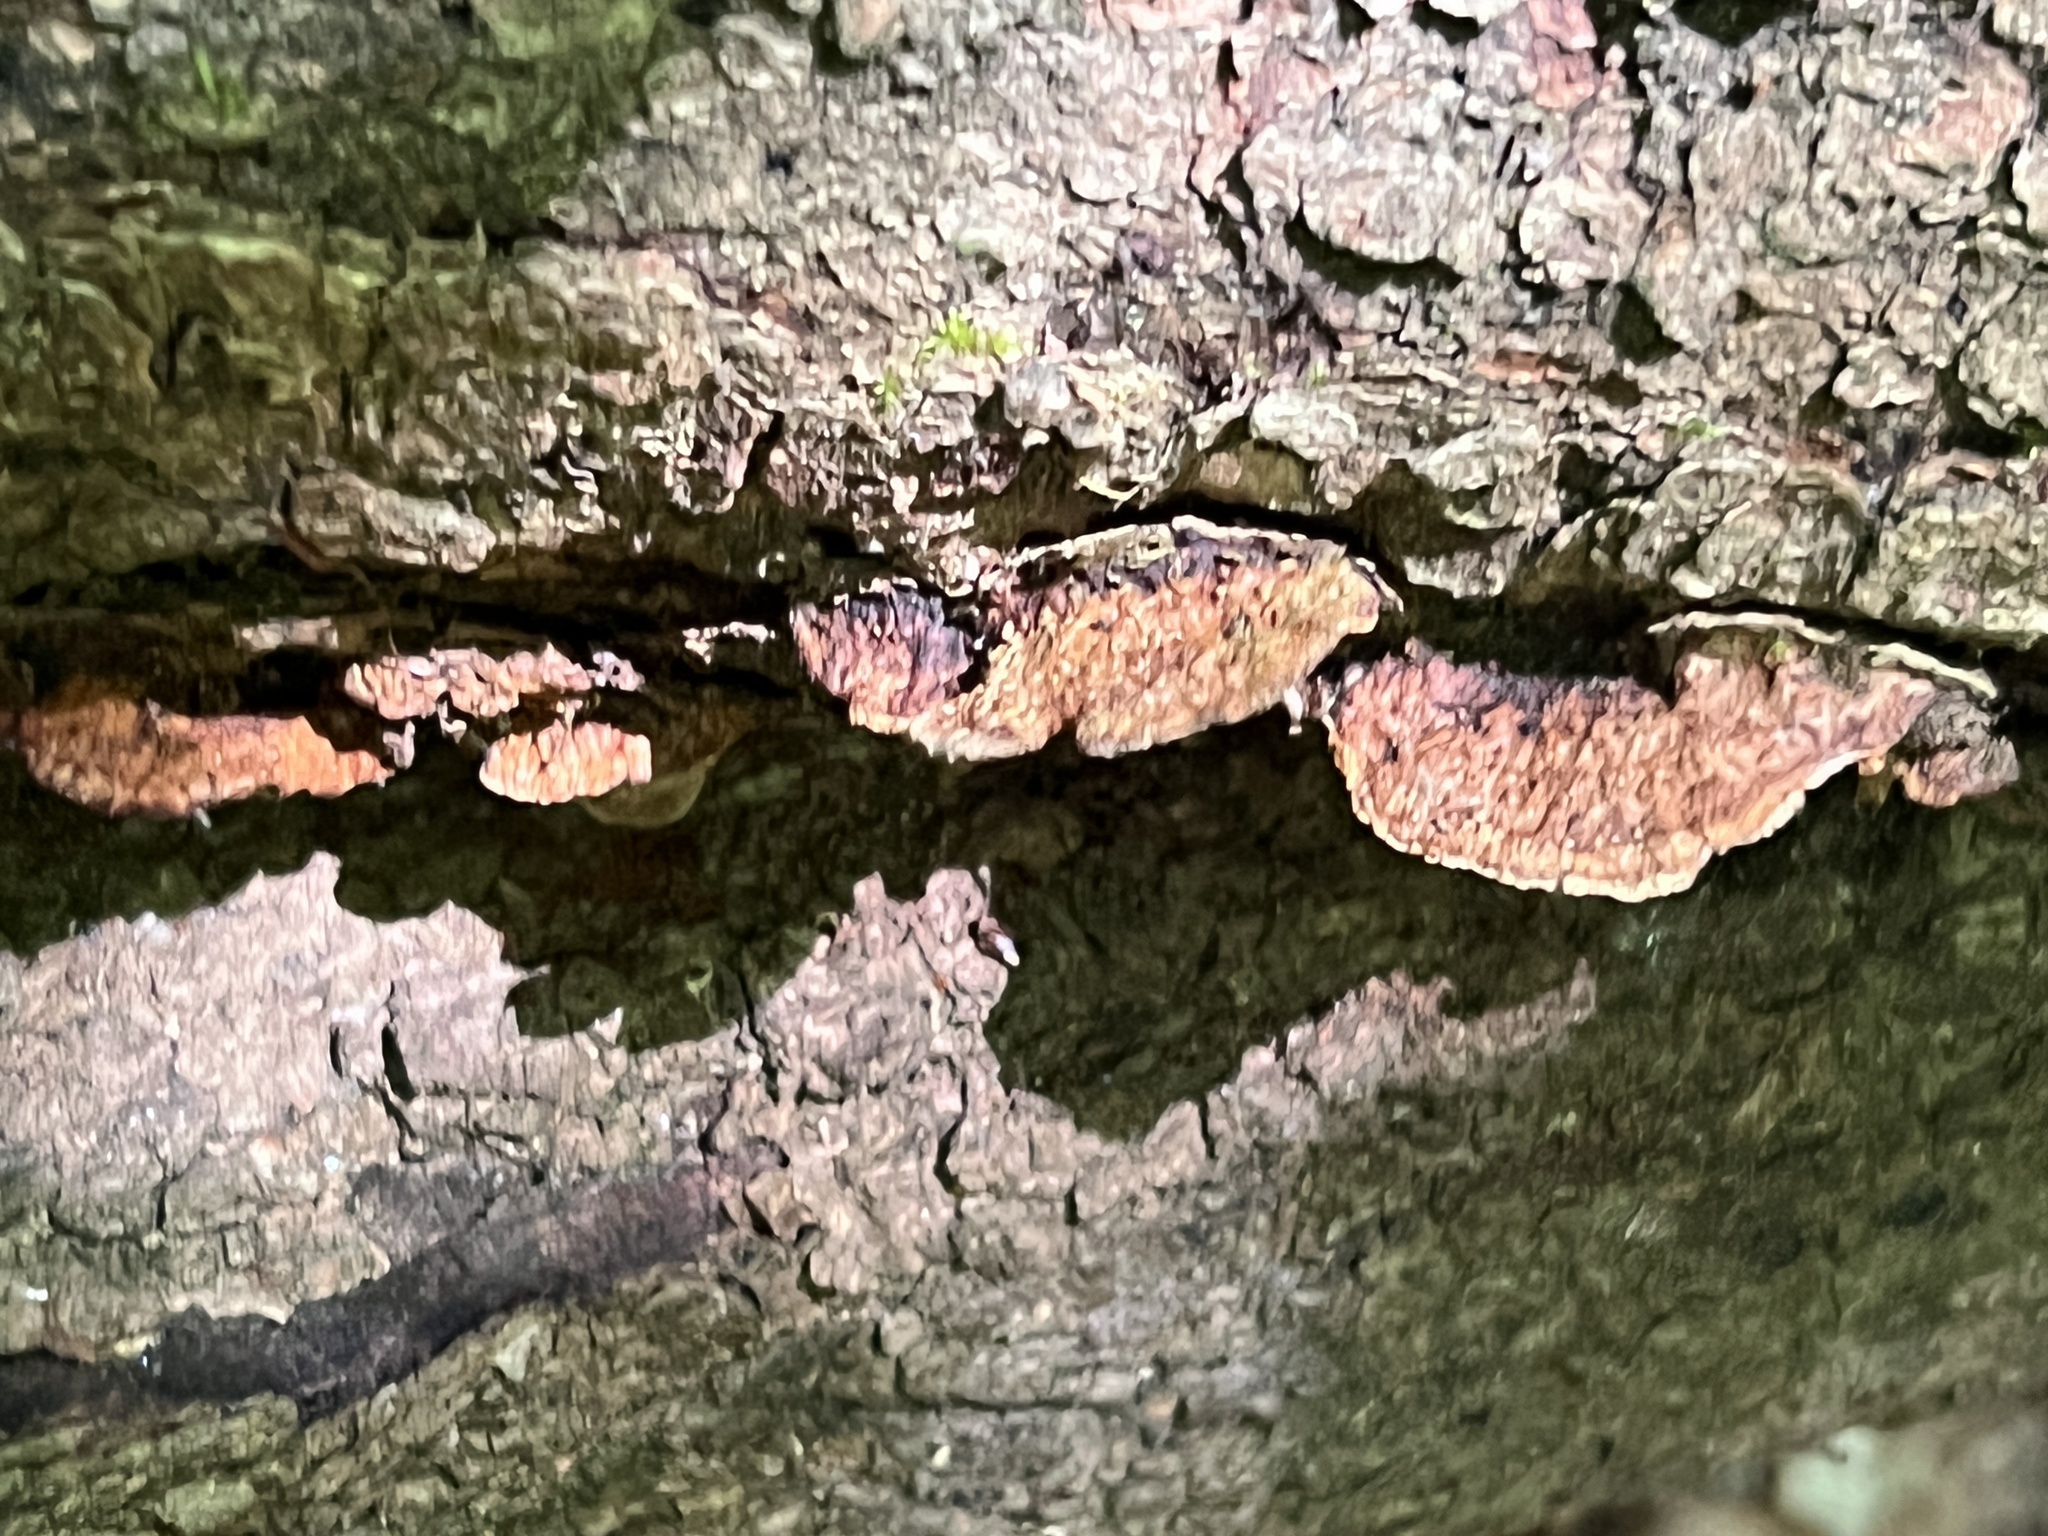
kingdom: Fungi
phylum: Basidiomycota
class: Agaricomycetes
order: Hymenochaetales
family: Hymenochaetaceae
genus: Phellinus
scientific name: Phellinus gilvus
